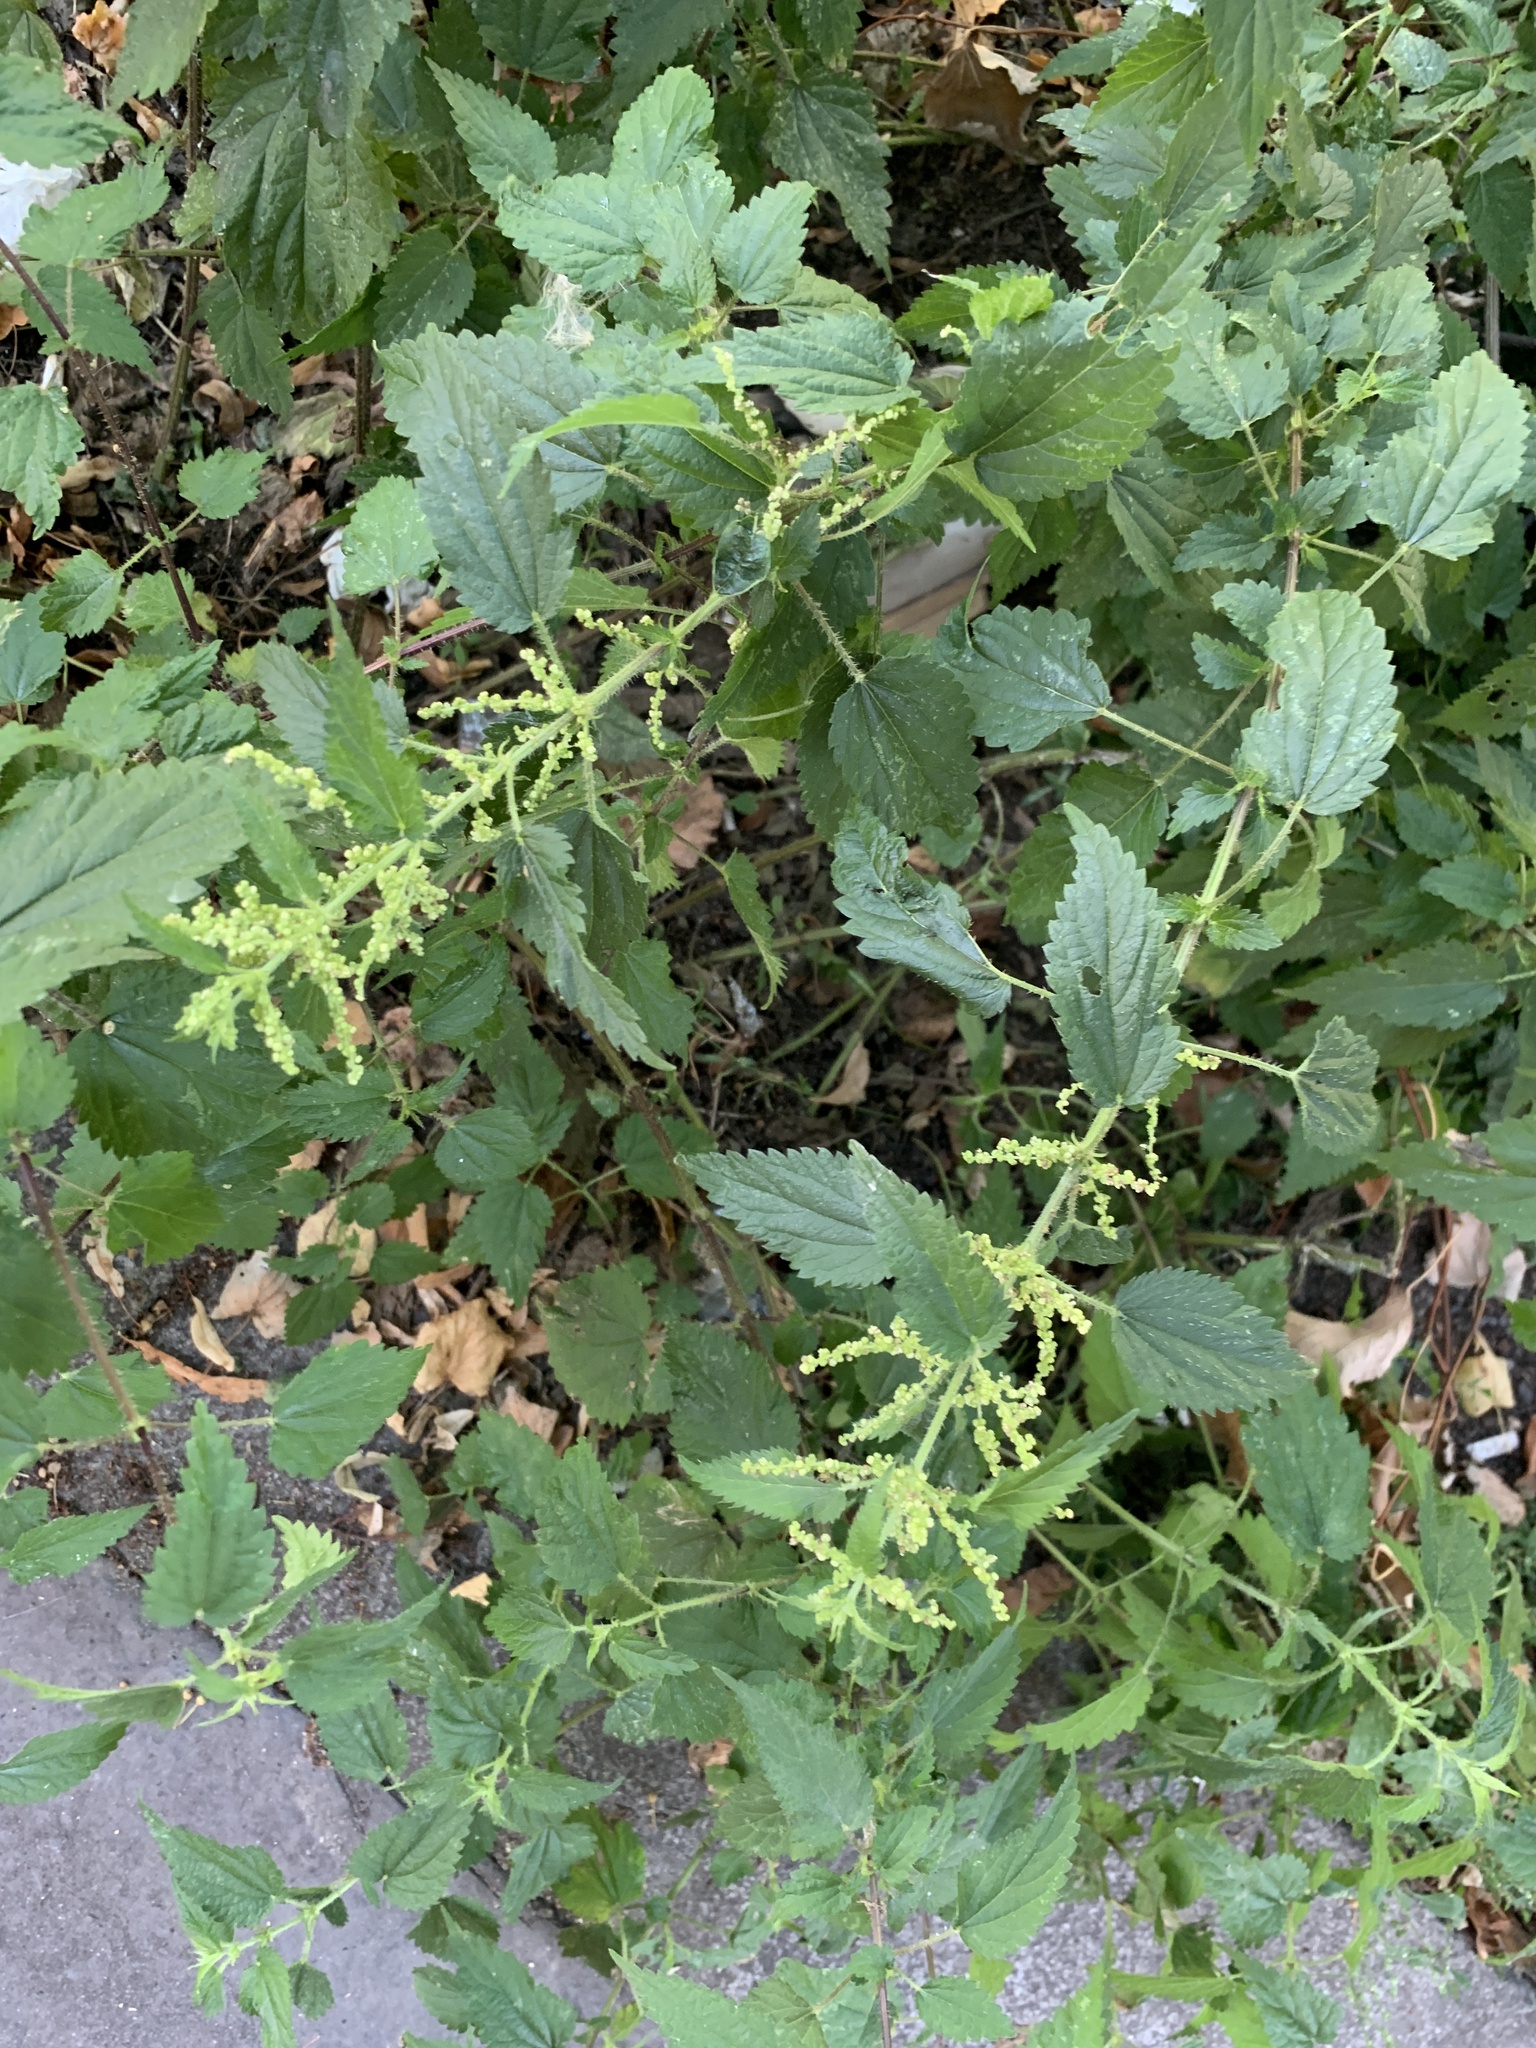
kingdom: Plantae
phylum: Tracheophyta
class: Magnoliopsida
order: Rosales
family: Urticaceae
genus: Urtica
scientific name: Urtica dioica
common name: Common nettle
